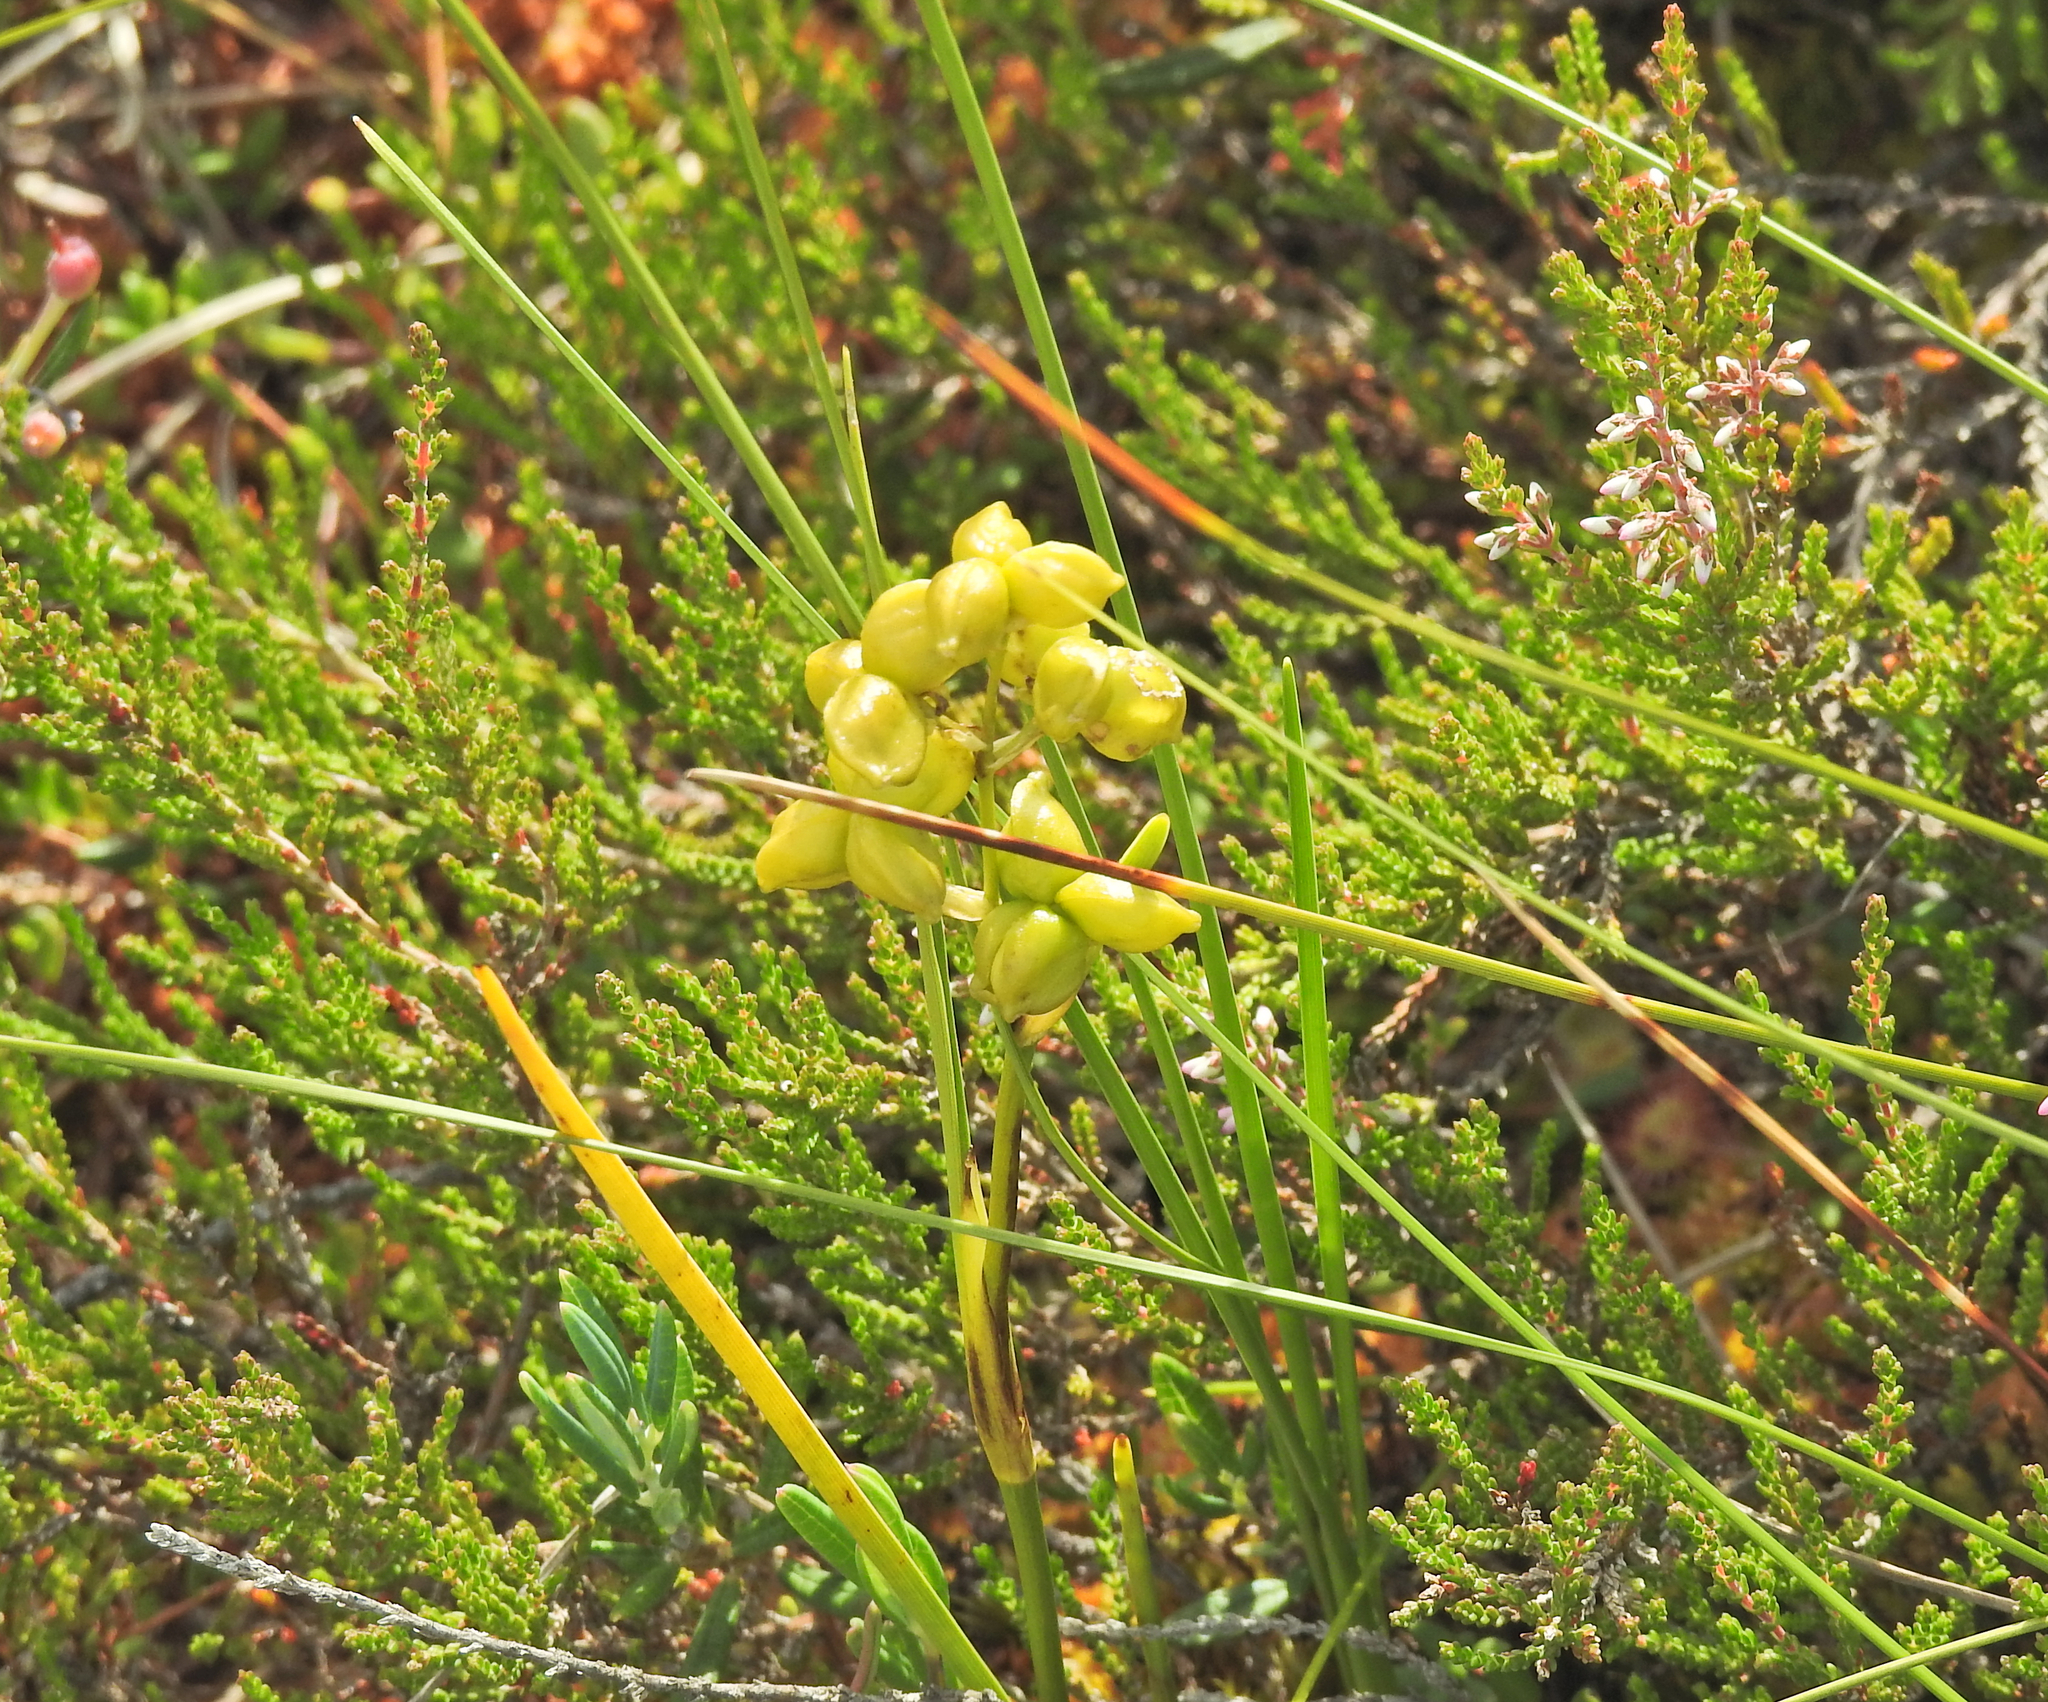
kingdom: Plantae
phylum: Tracheophyta
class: Liliopsida
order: Alismatales
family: Scheuchzeriaceae
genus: Scheuchzeria
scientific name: Scheuchzeria palustris
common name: Rannoch-rush
